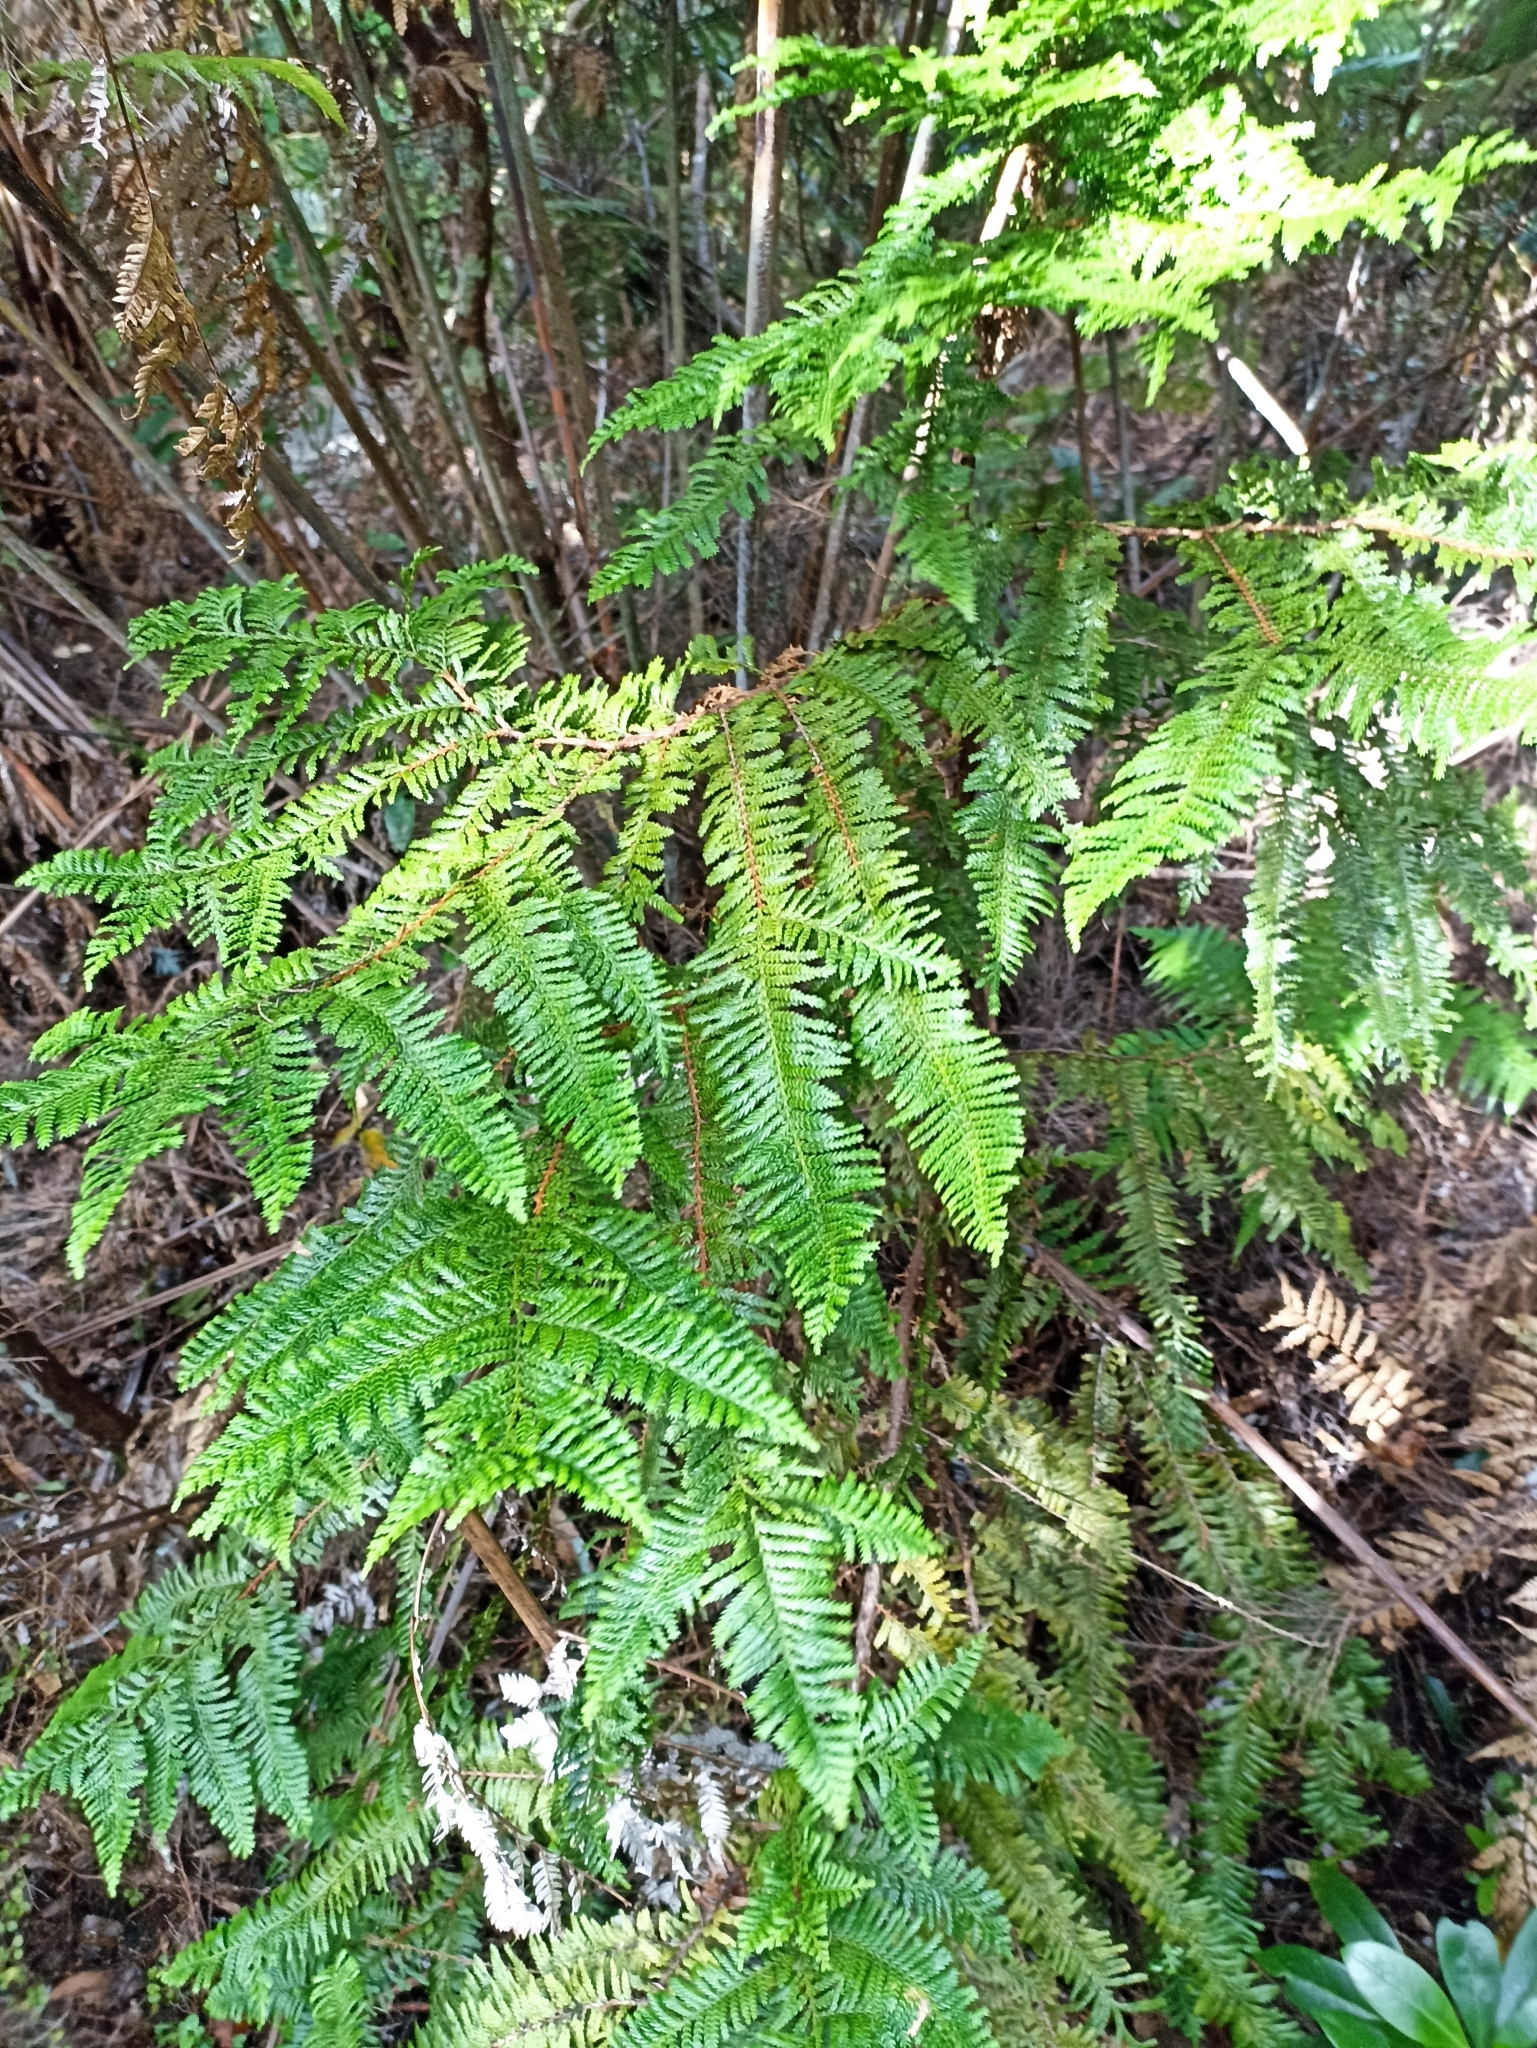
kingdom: Plantae
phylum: Tracheophyta
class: Pinopsida
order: Pinales
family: Cupressaceae
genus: Libocedrus
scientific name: Libocedrus plumosa
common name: New zealand cedar
